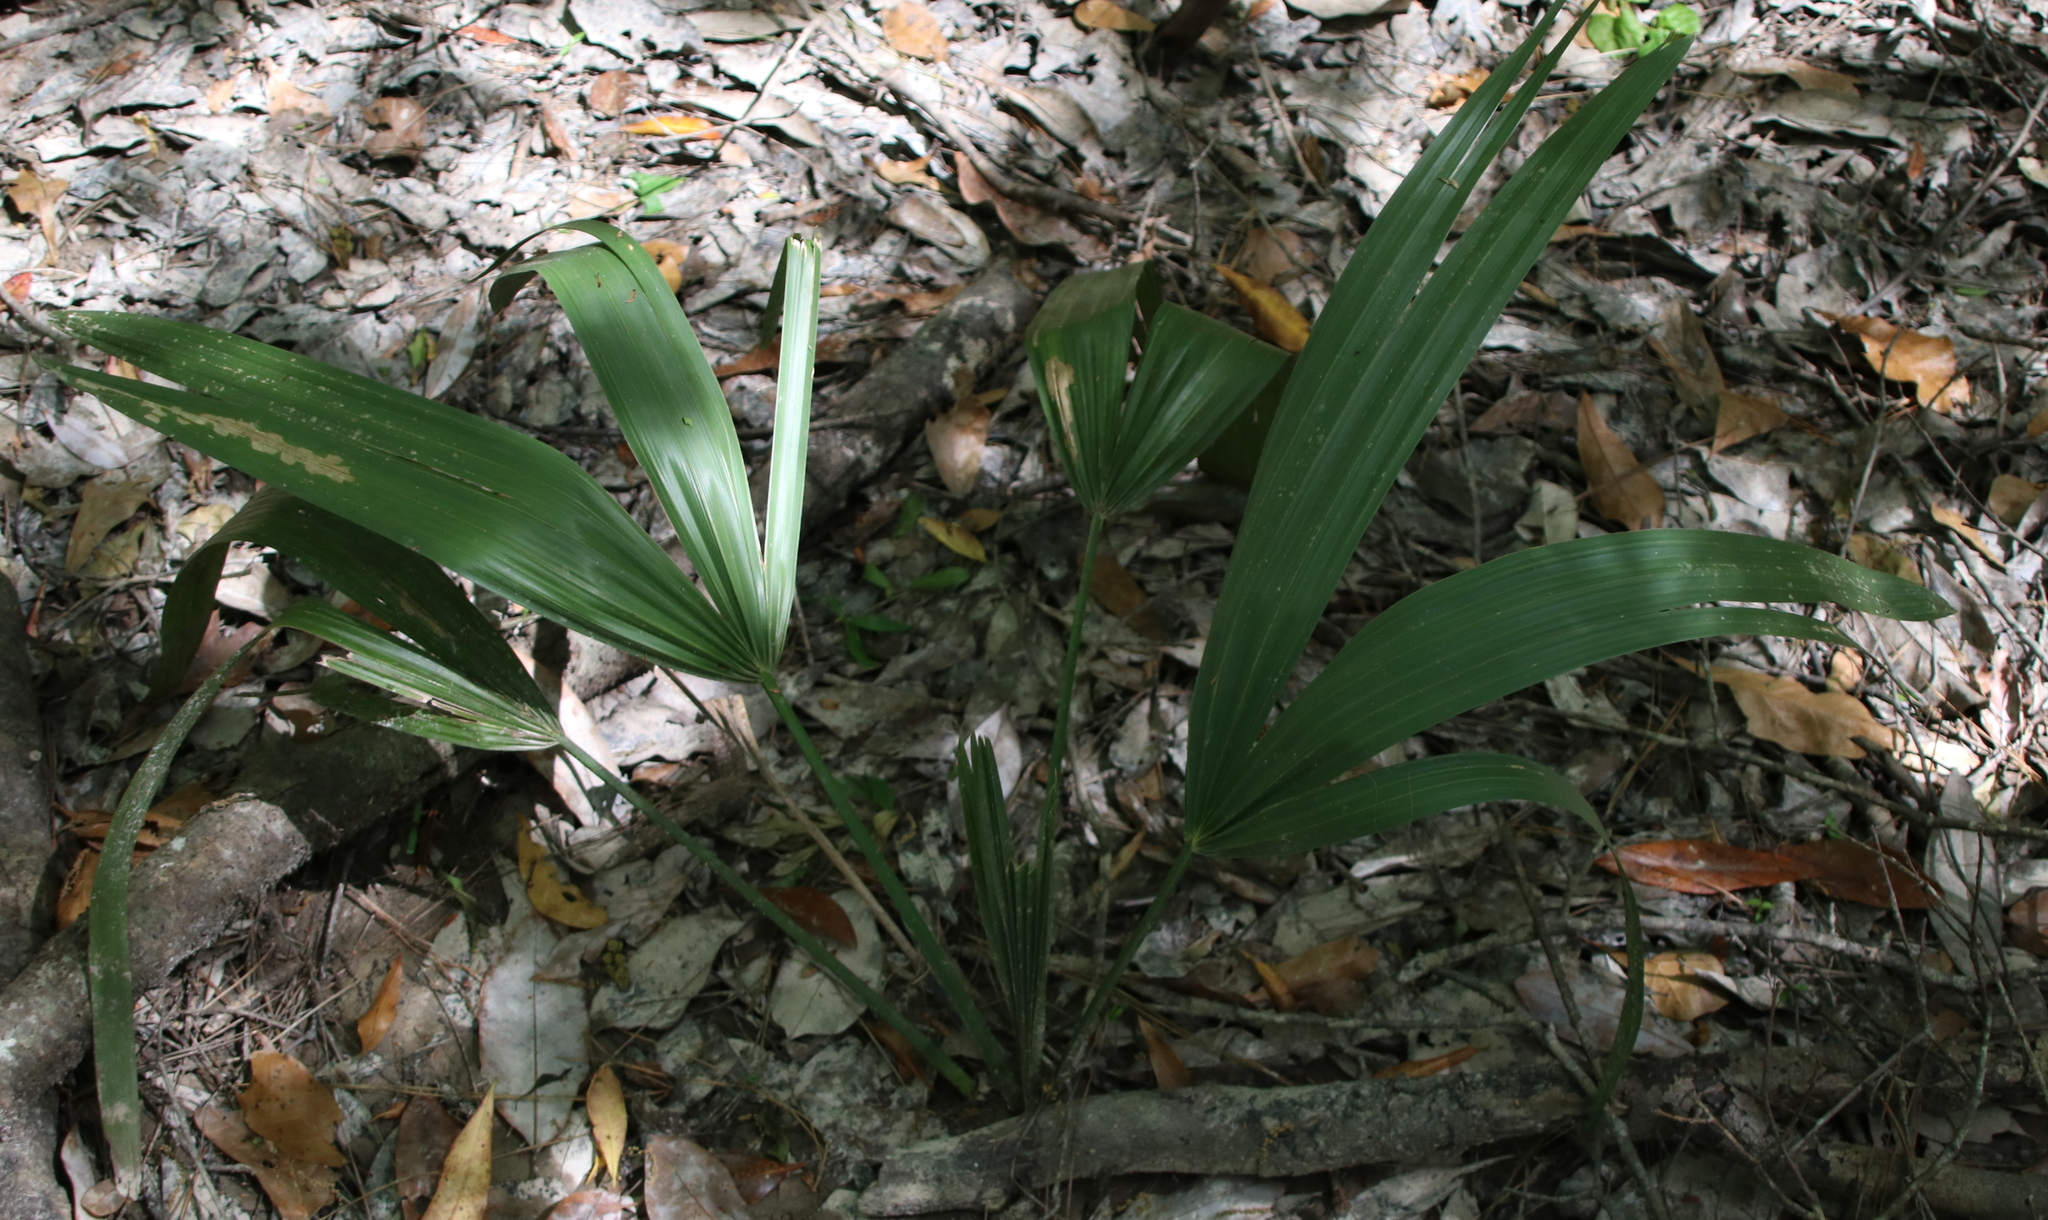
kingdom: Plantae
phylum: Tracheophyta
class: Liliopsida
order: Arecales
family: Arecaceae
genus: Sabal
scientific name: Sabal minor
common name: Dwarf palmetto
